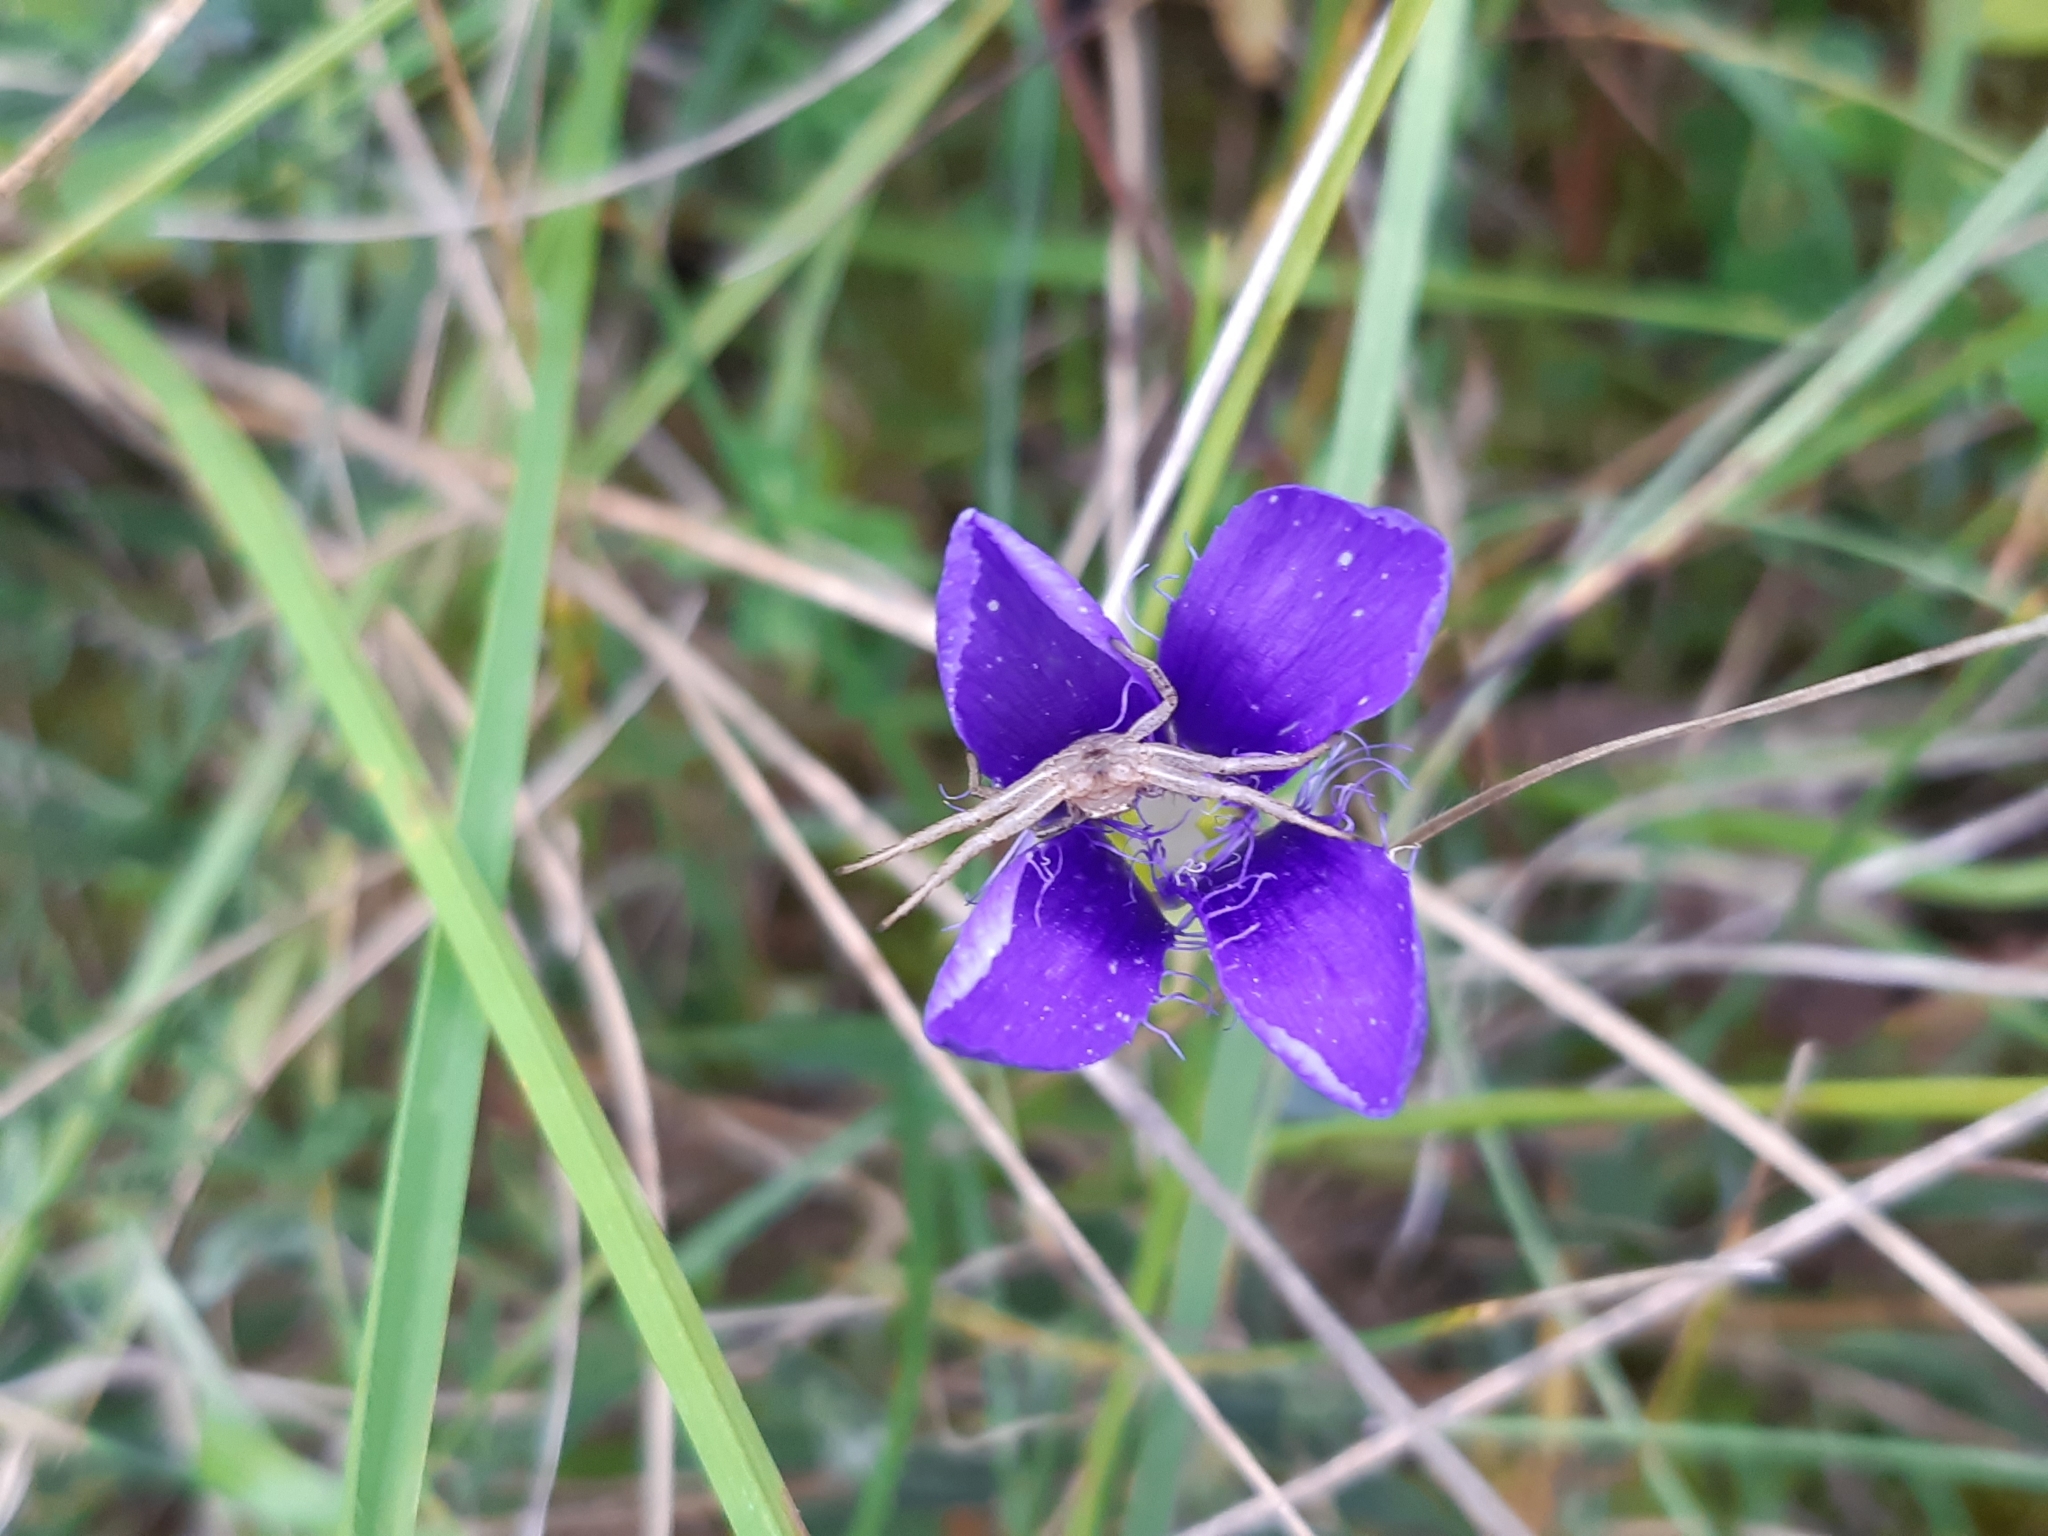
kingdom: Plantae
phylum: Tracheophyta
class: Magnoliopsida
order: Gentianales
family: Gentianaceae
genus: Gentianopsis
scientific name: Gentianopsis ciliata
